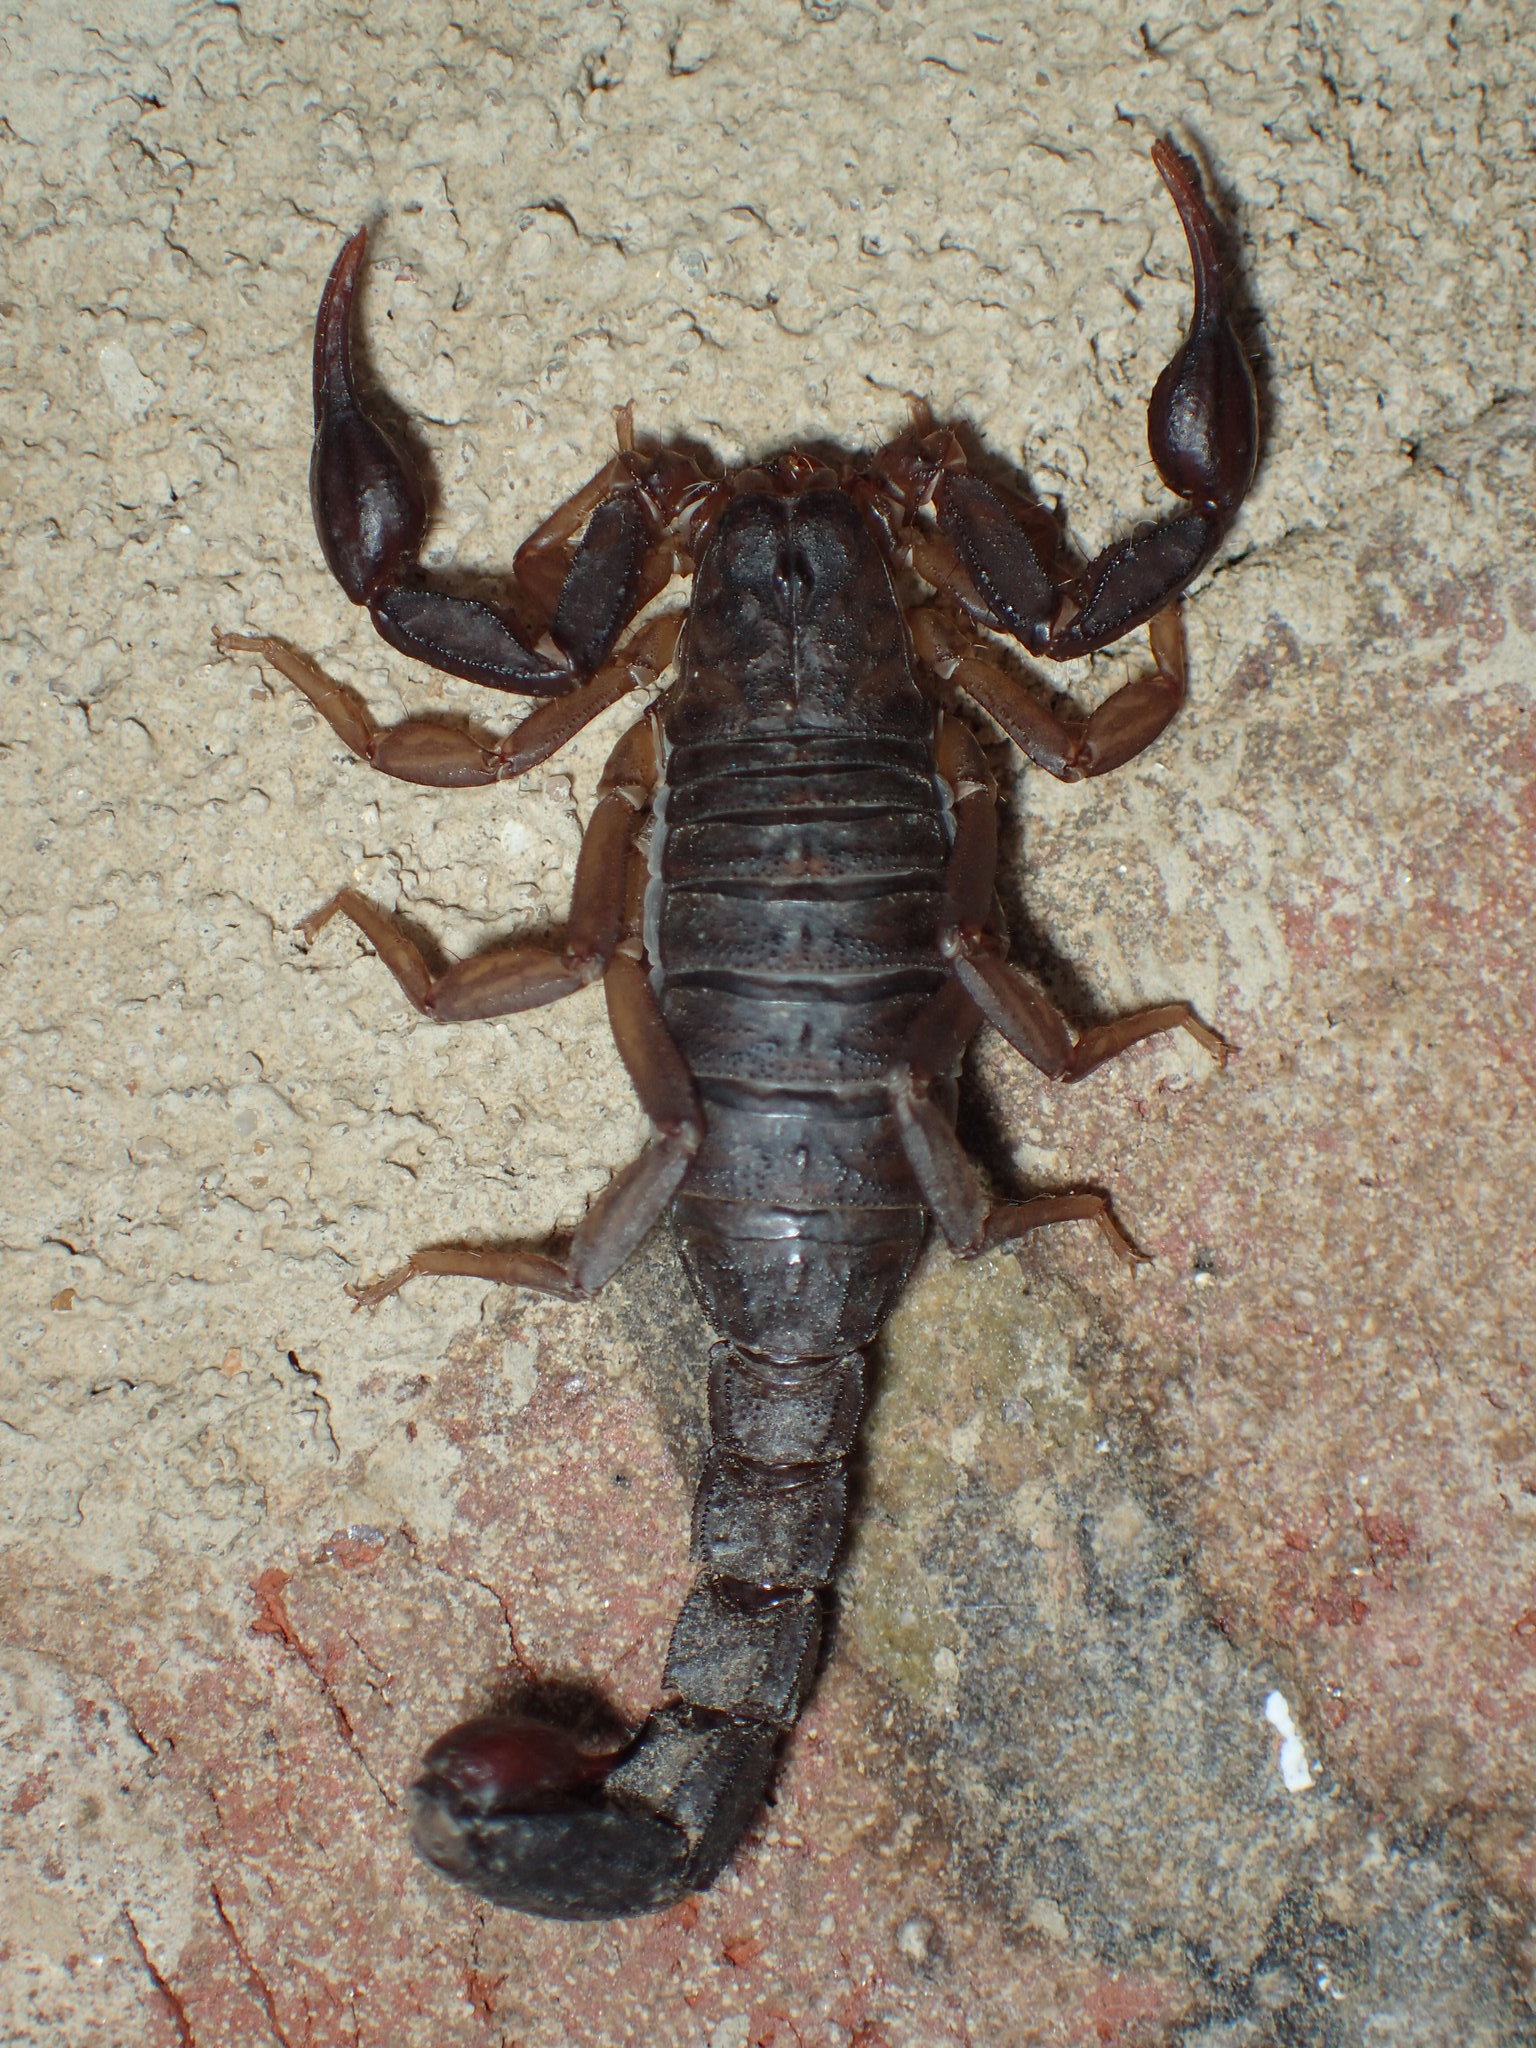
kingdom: Animalia
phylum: Arthropoda
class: Arachnida
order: Scorpiones
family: Vaejovidae
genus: Vaejovis
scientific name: Vaejovis carolinianus
